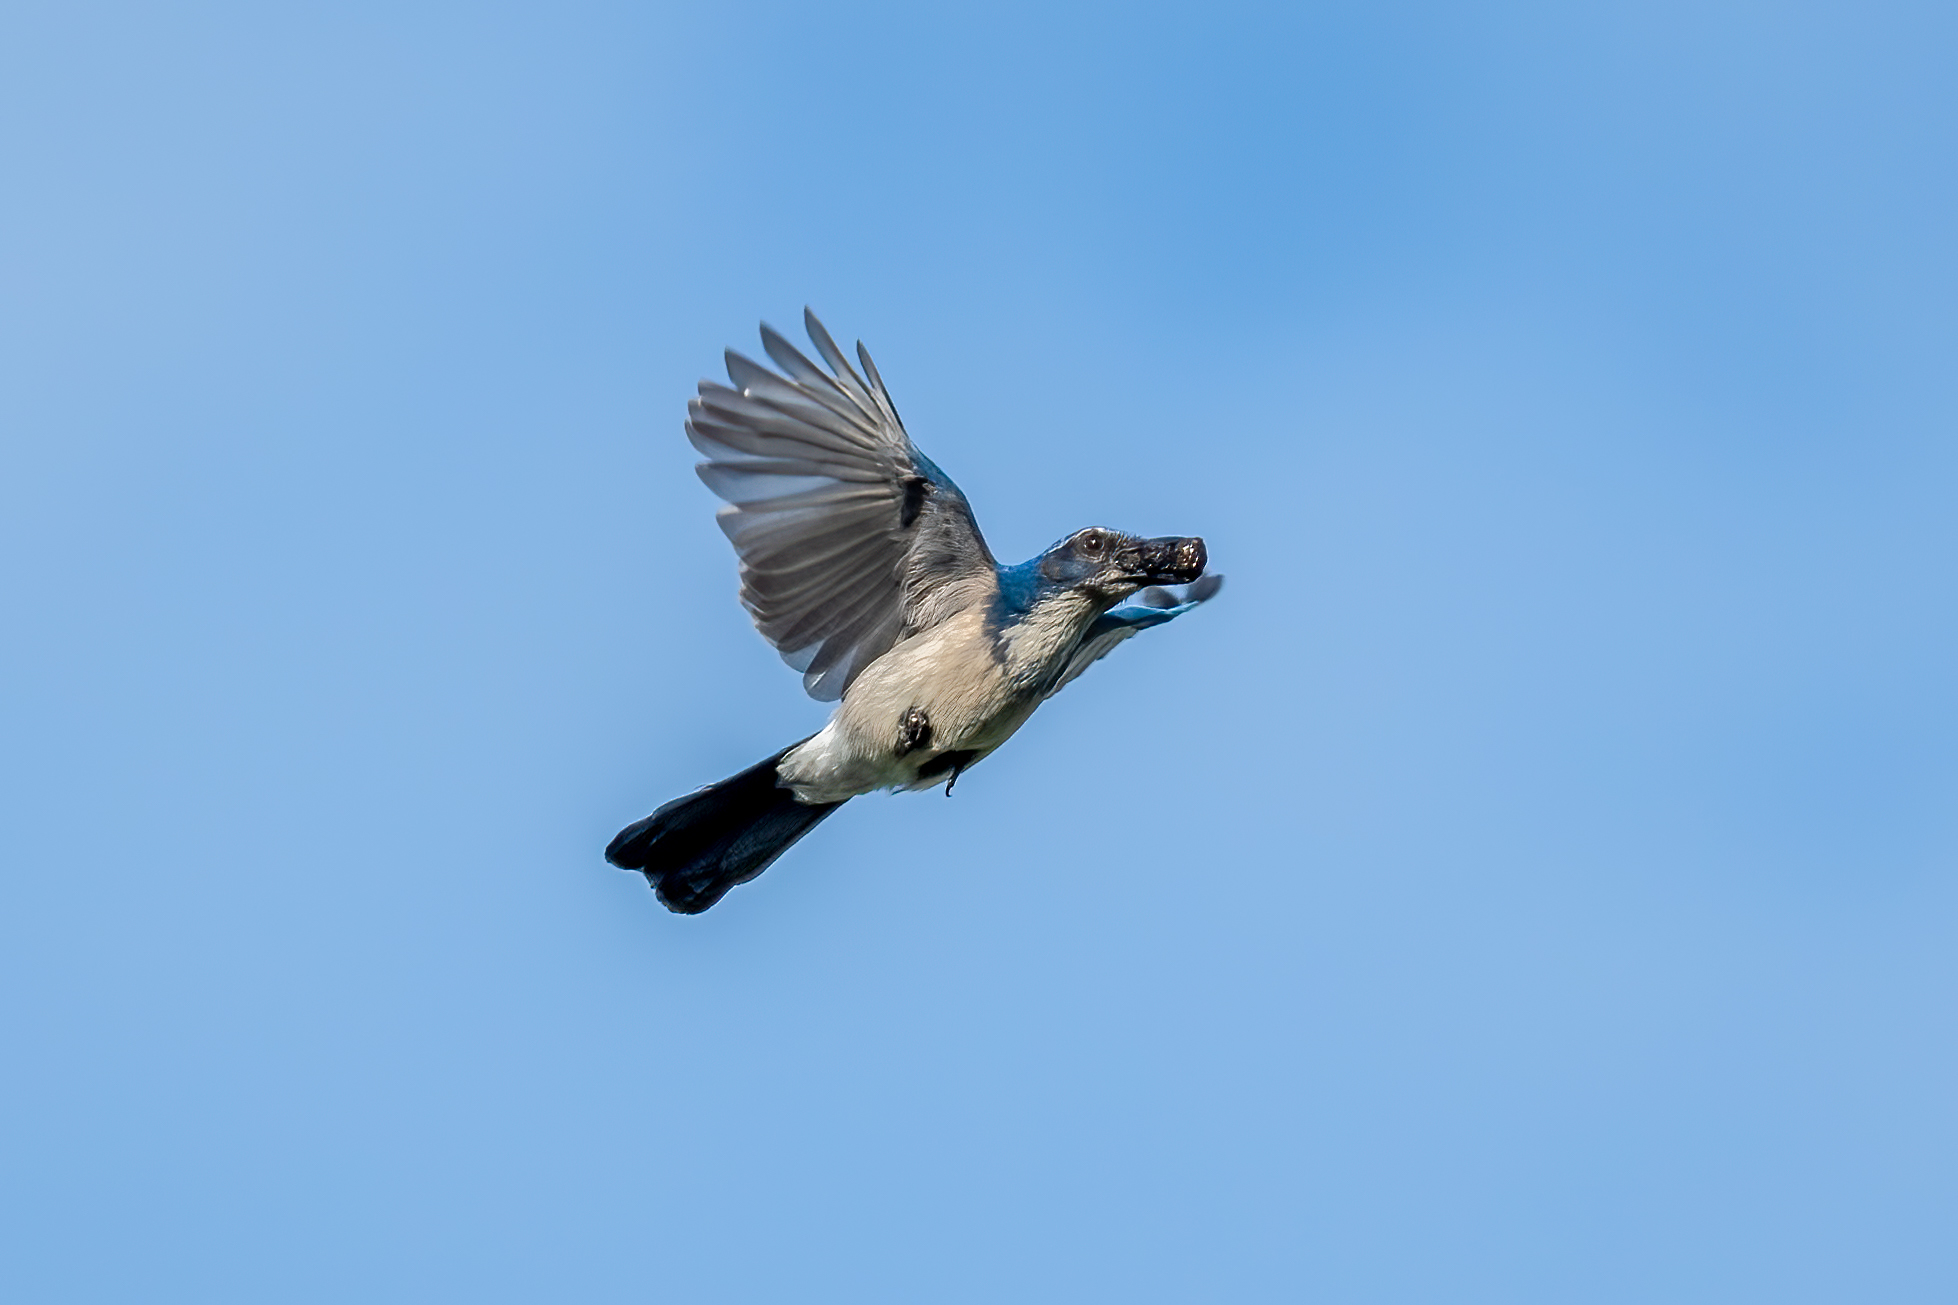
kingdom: Animalia
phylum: Chordata
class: Aves
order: Passeriformes
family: Corvidae
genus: Aphelocoma
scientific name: Aphelocoma californica
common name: California scrub-jay
